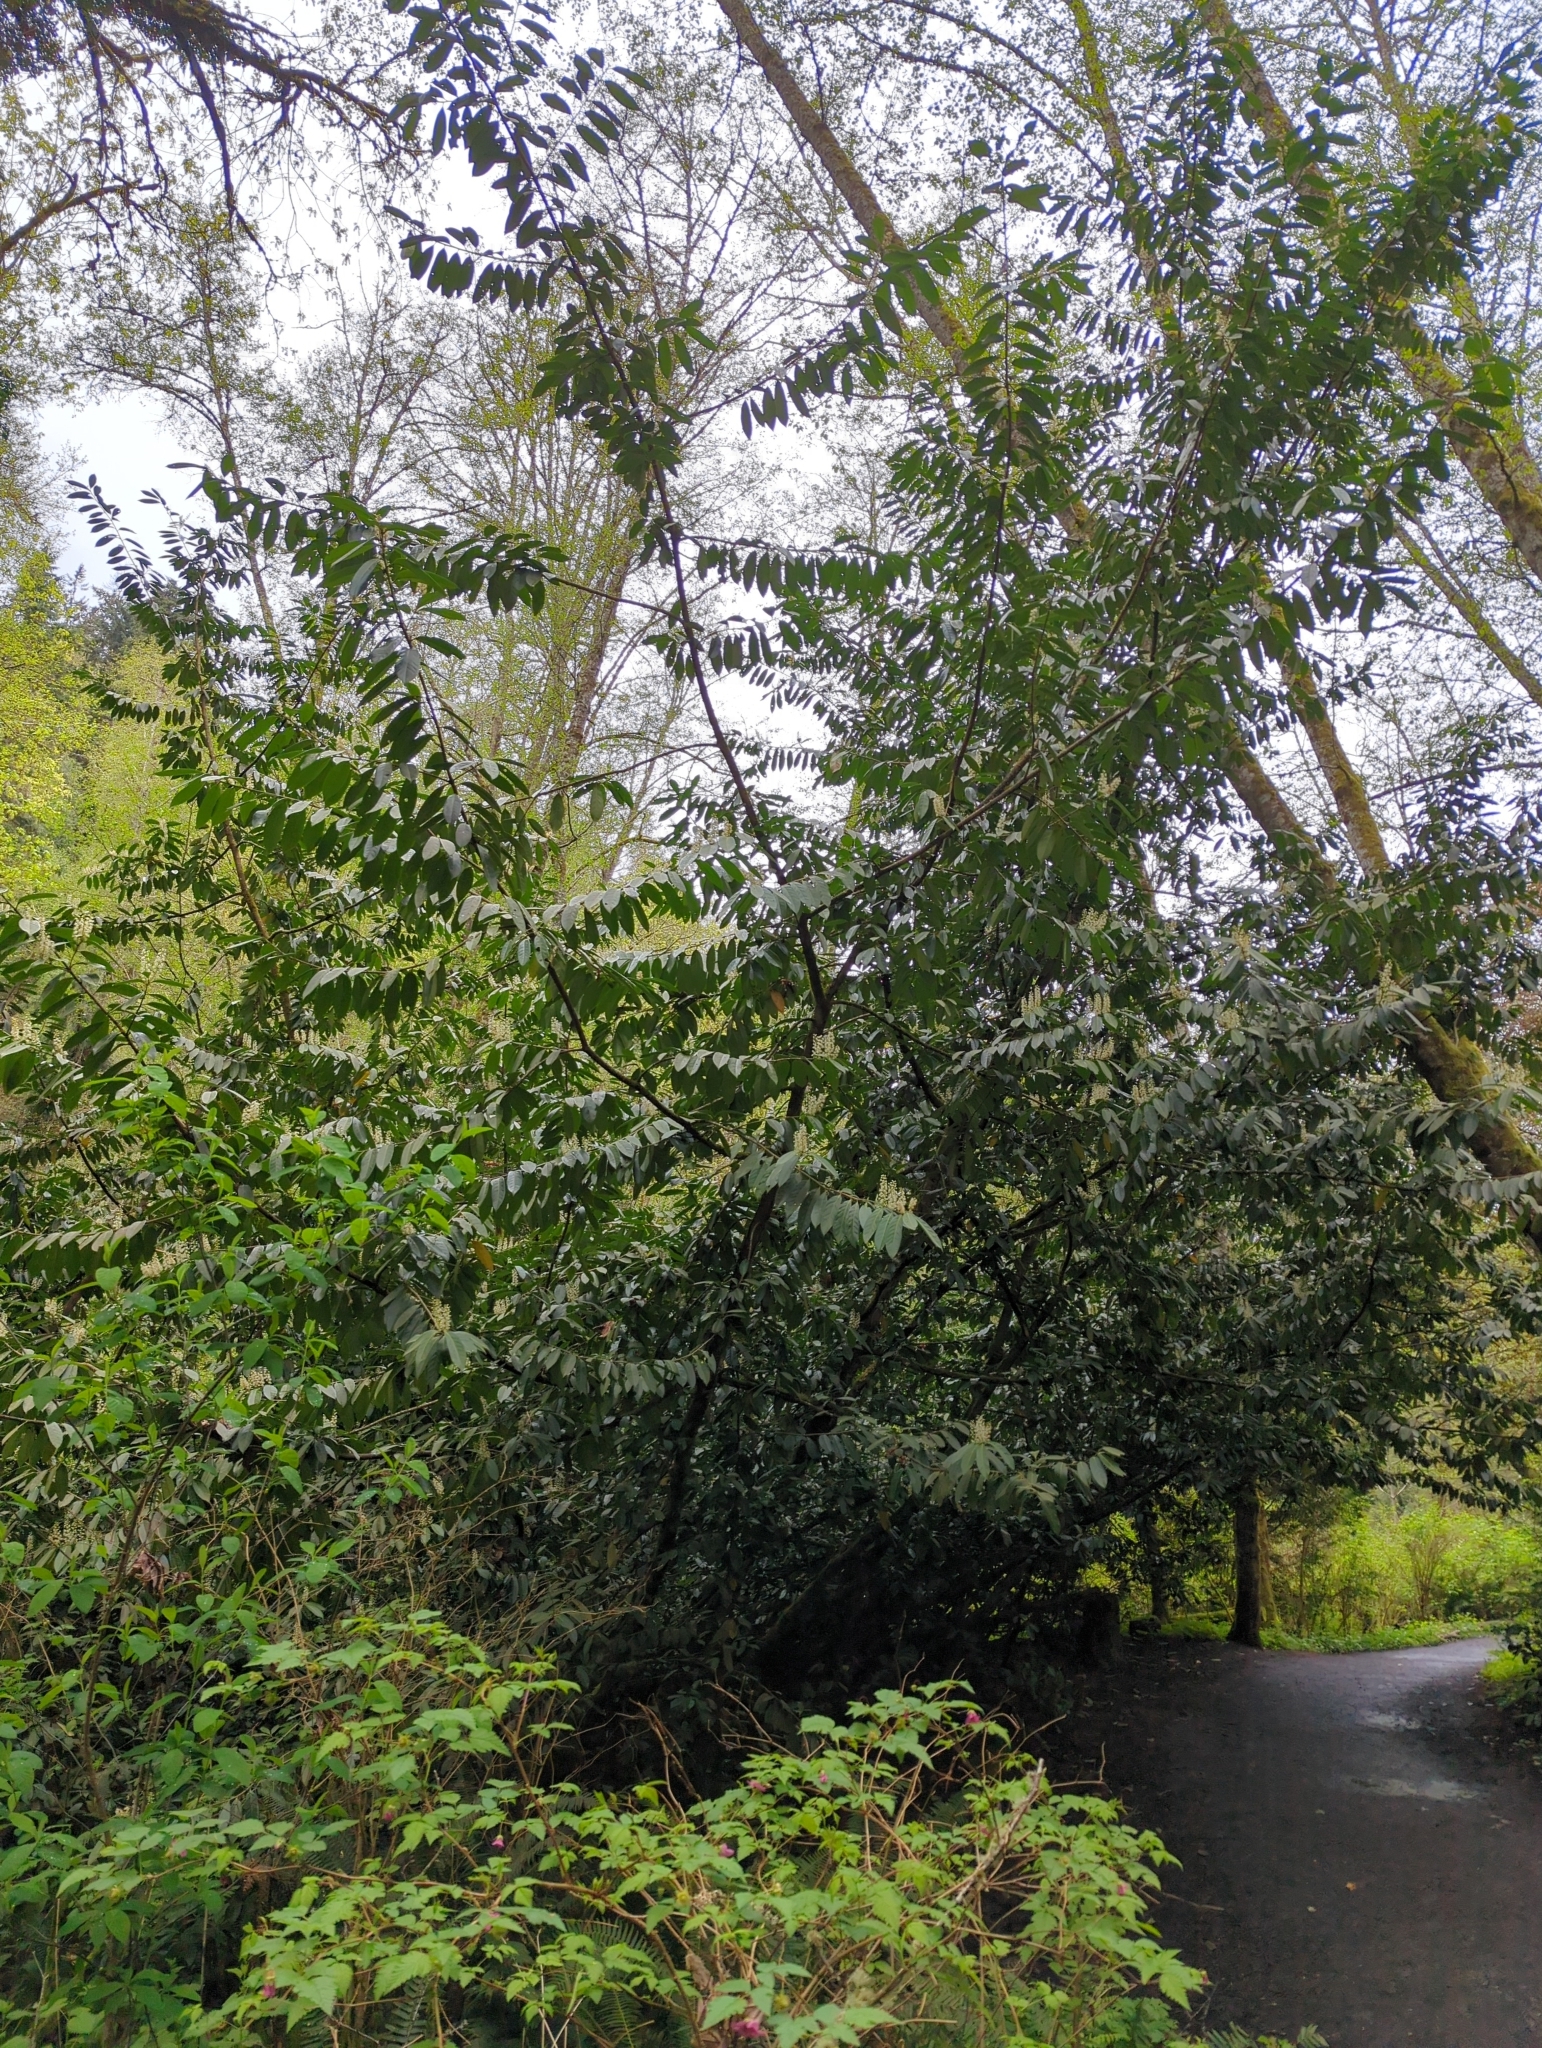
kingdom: Plantae
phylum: Tracheophyta
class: Magnoliopsida
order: Rosales
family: Rosaceae
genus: Prunus
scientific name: Prunus laurocerasus
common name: Cherry laurel
